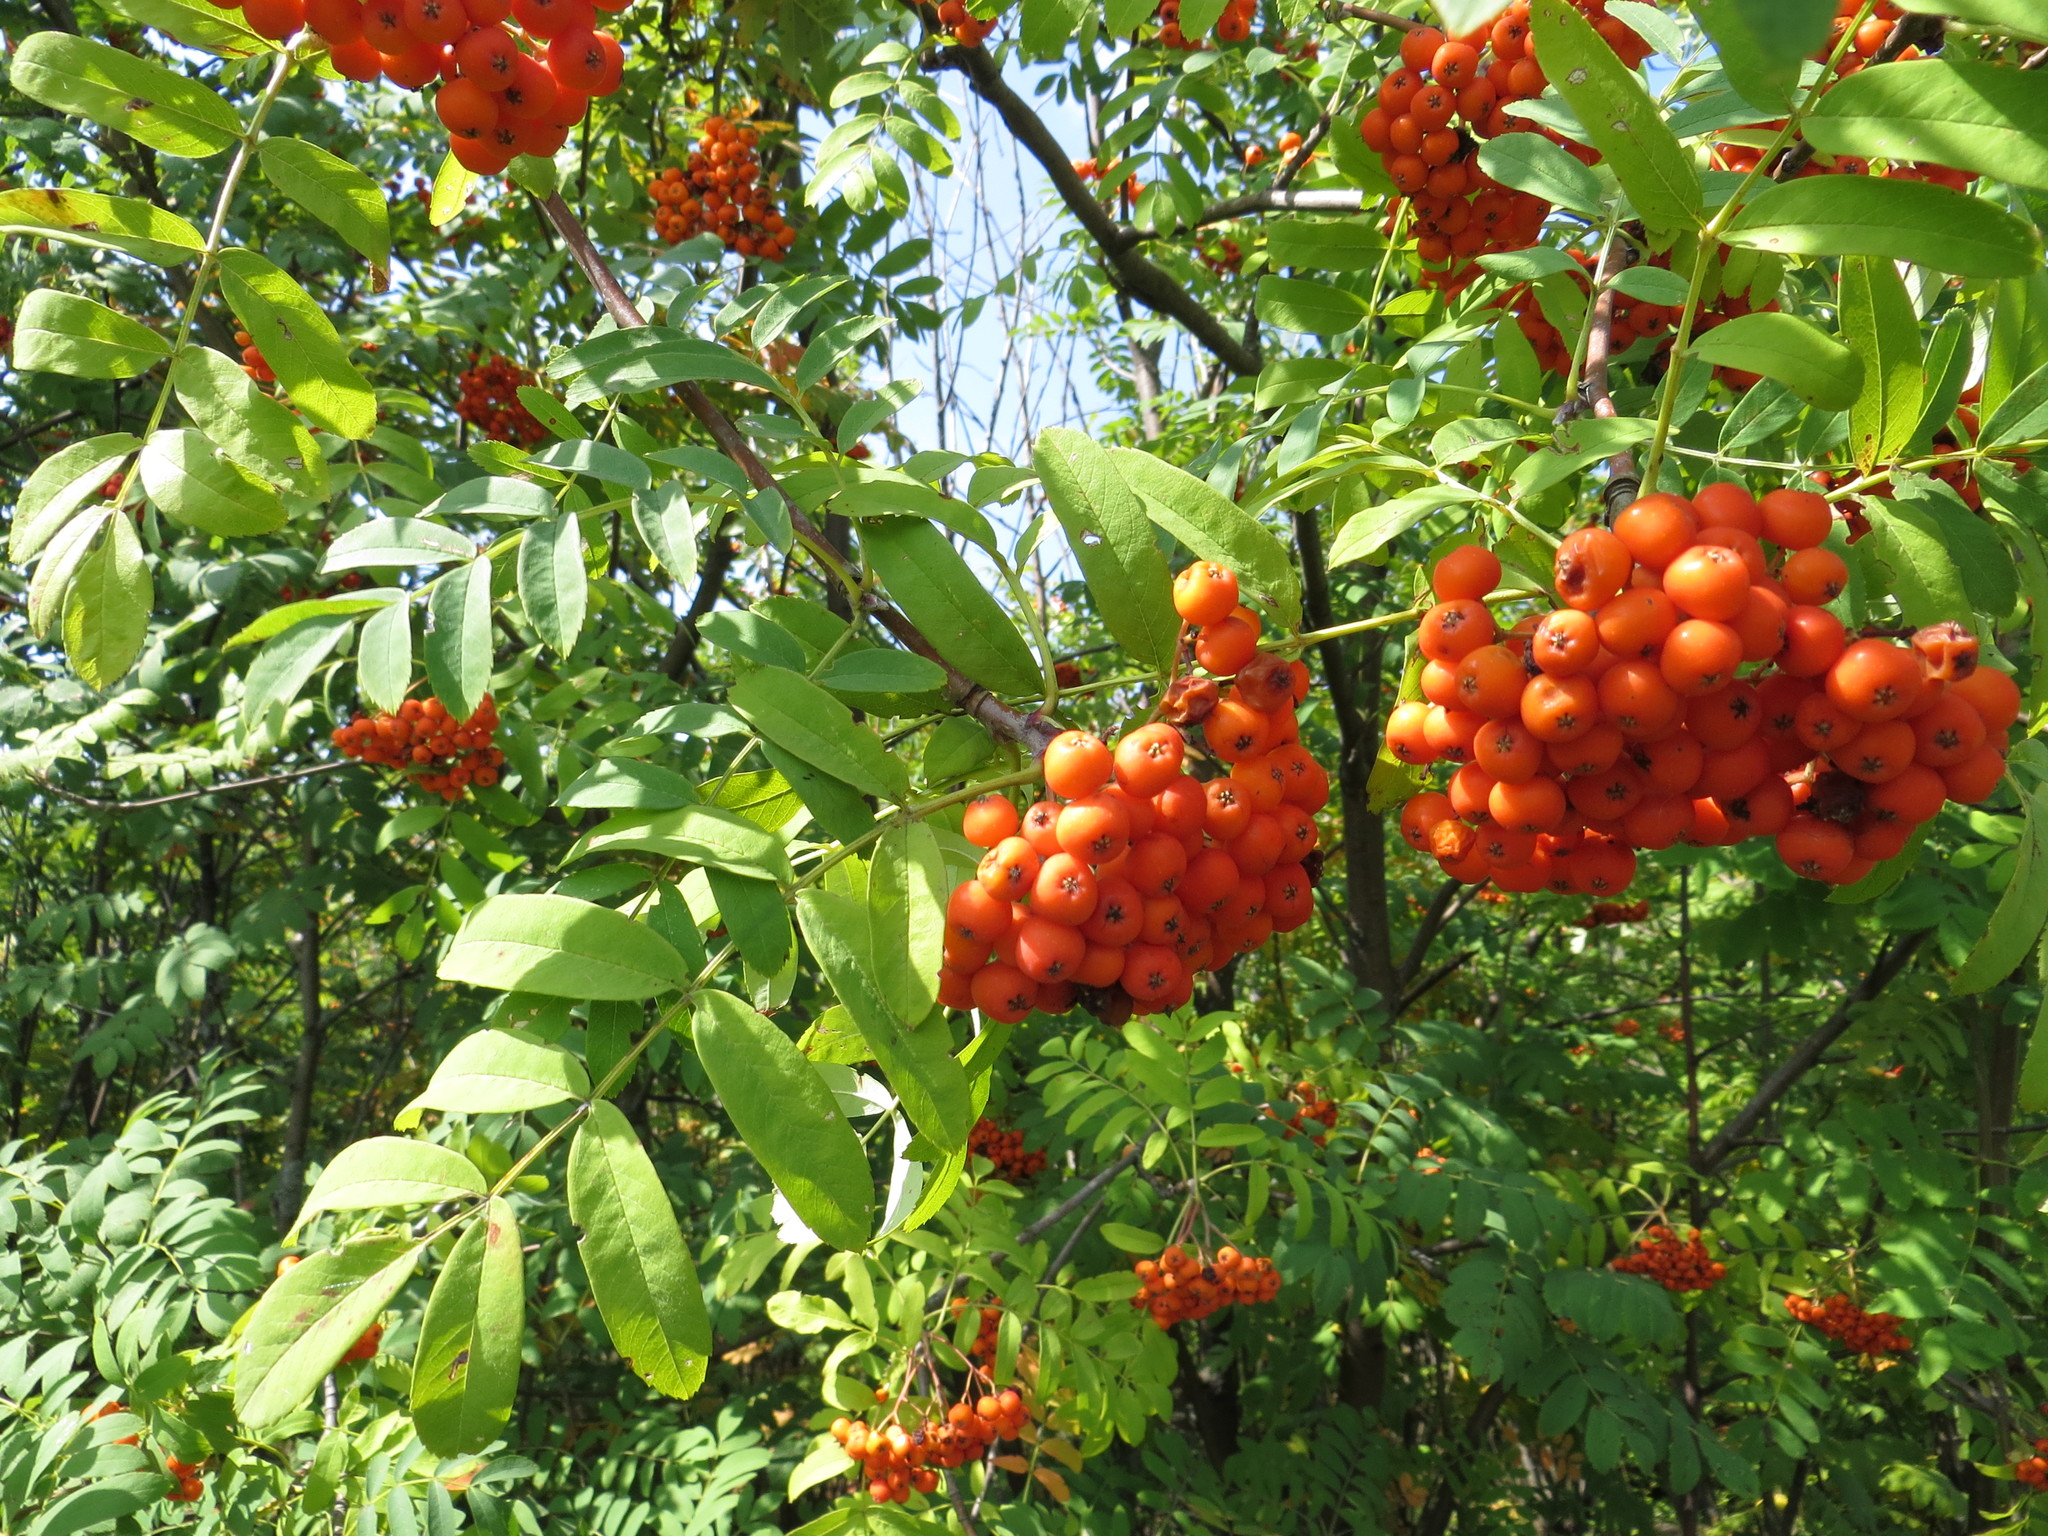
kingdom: Plantae
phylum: Tracheophyta
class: Magnoliopsida
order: Rosales
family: Rosaceae
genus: Sorbus
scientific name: Sorbus aucuparia
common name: Rowan
